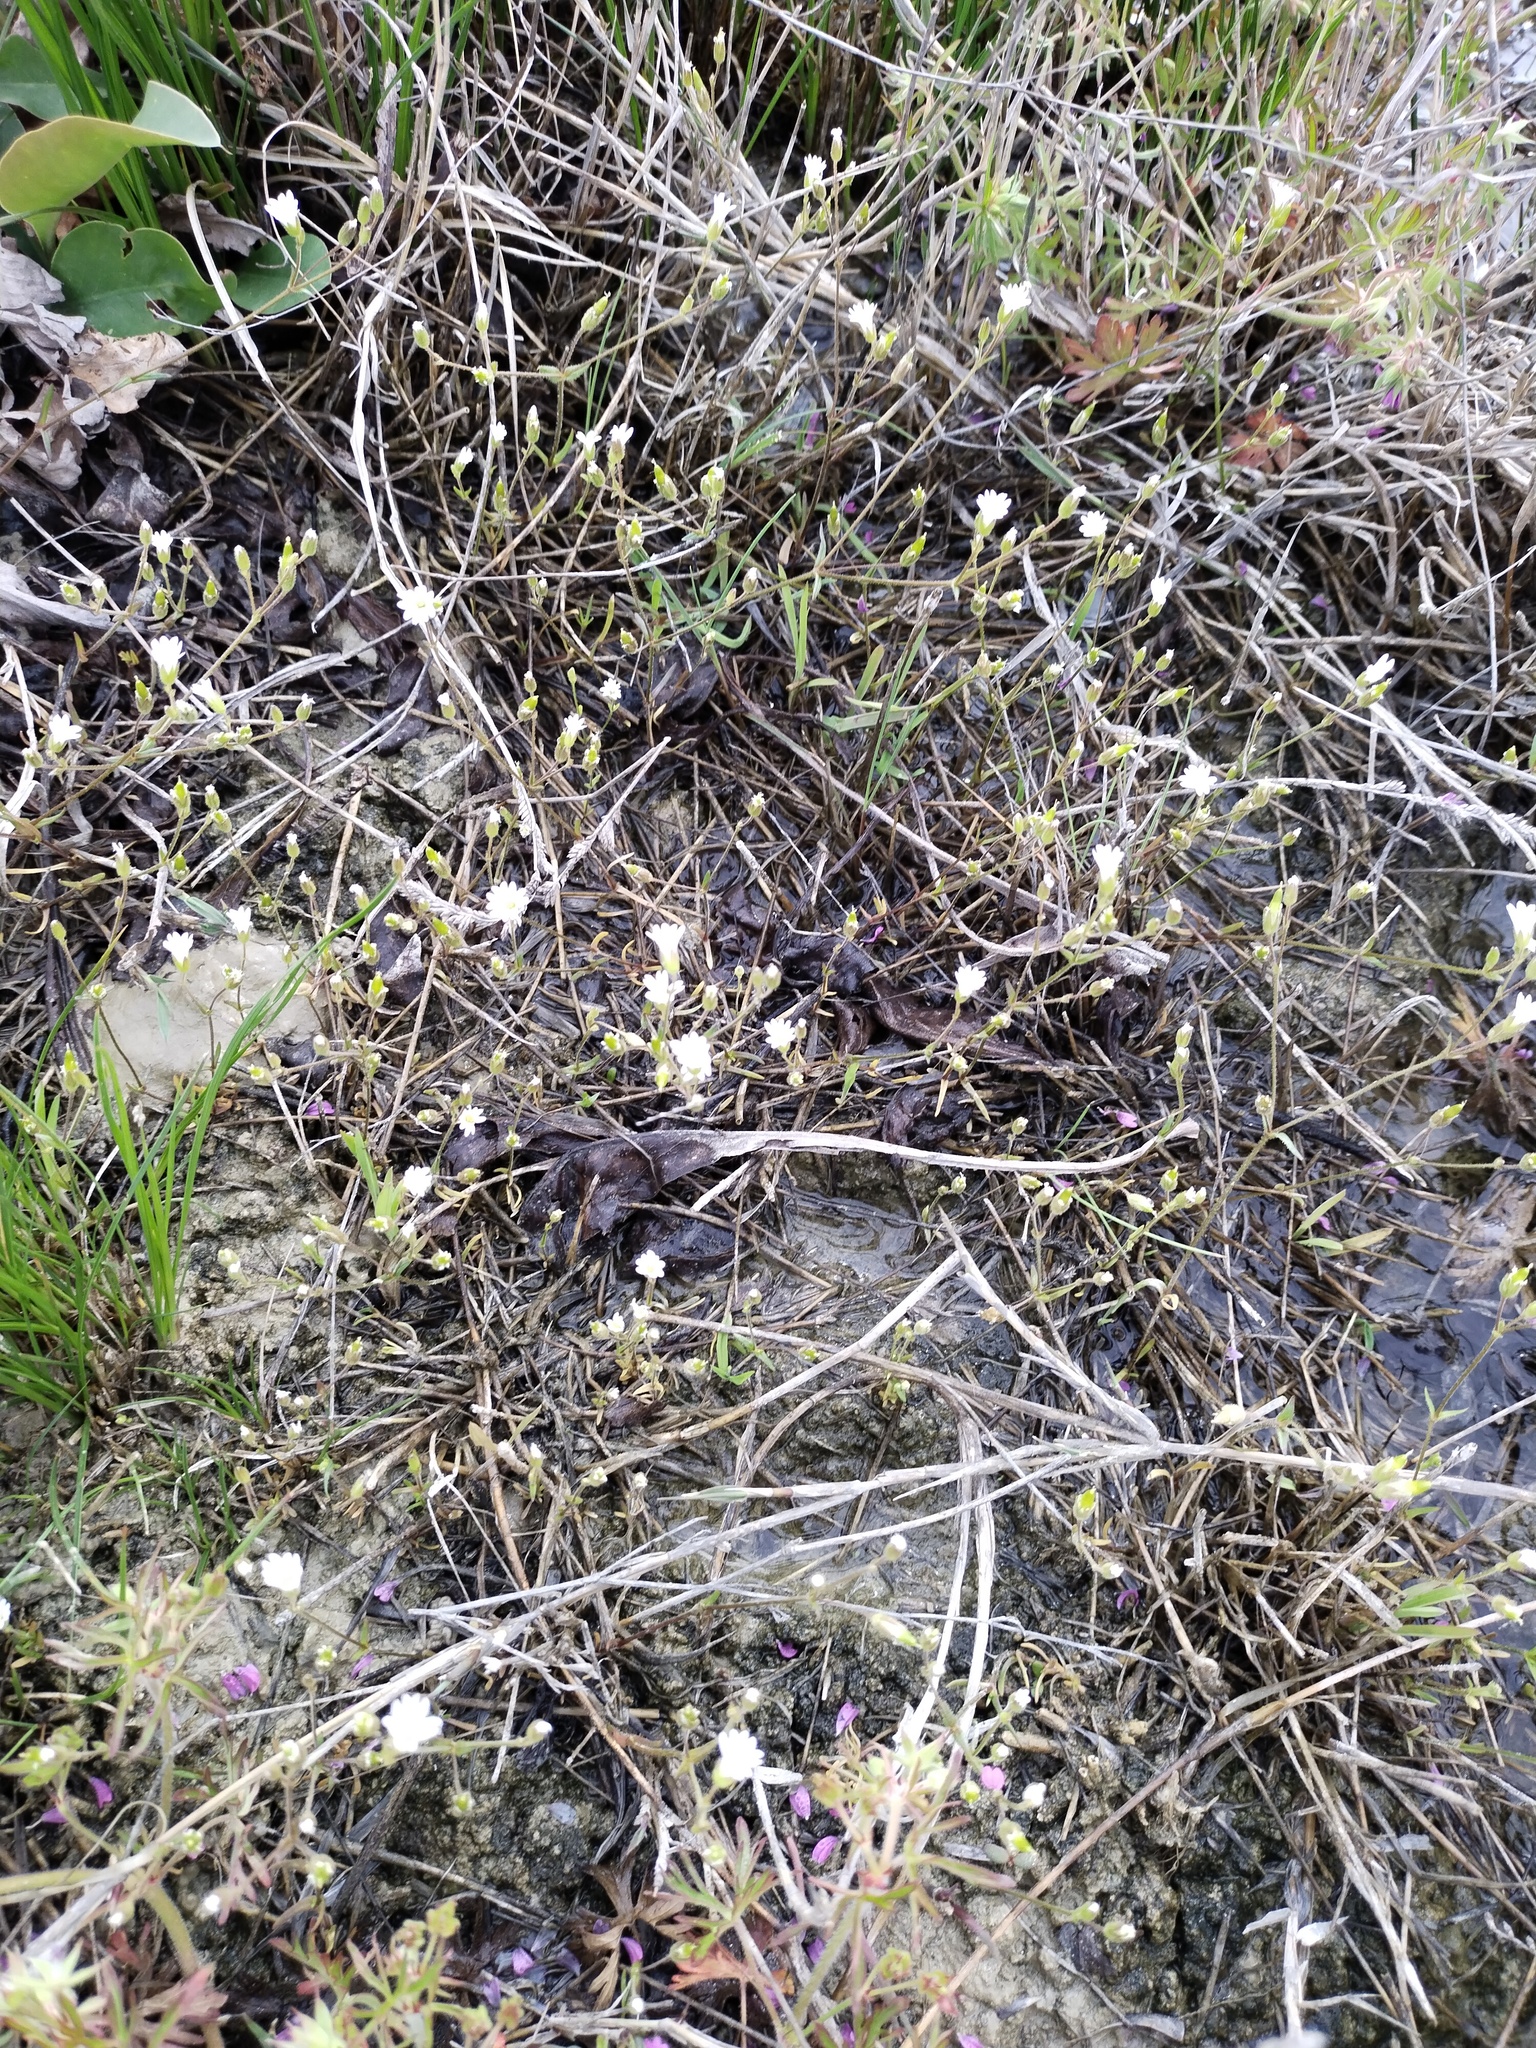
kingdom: Plantae
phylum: Tracheophyta
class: Magnoliopsida
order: Caryophyllales
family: Caryophyllaceae
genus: Dichodon
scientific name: Dichodon viscidum
